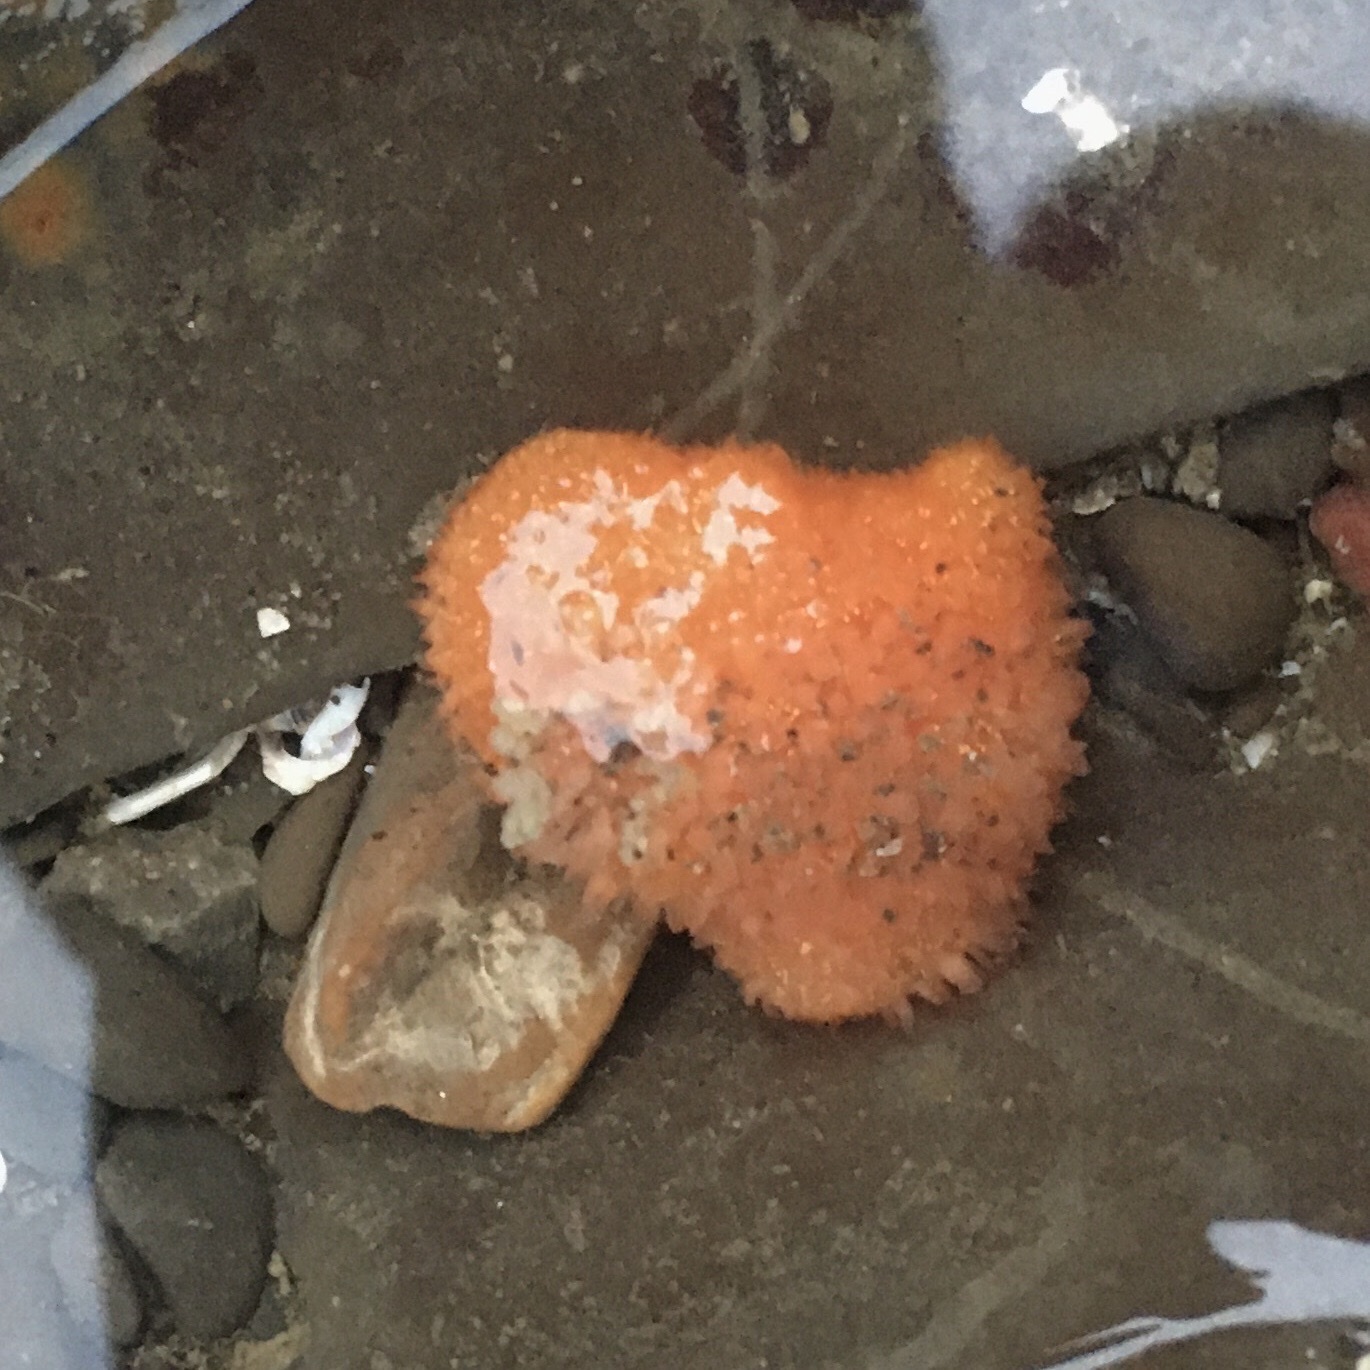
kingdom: Animalia
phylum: Mollusca
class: Gastropoda
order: Nudibranchia
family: Onchidorididae
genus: Acanthodoris
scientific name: Acanthodoris lutea
